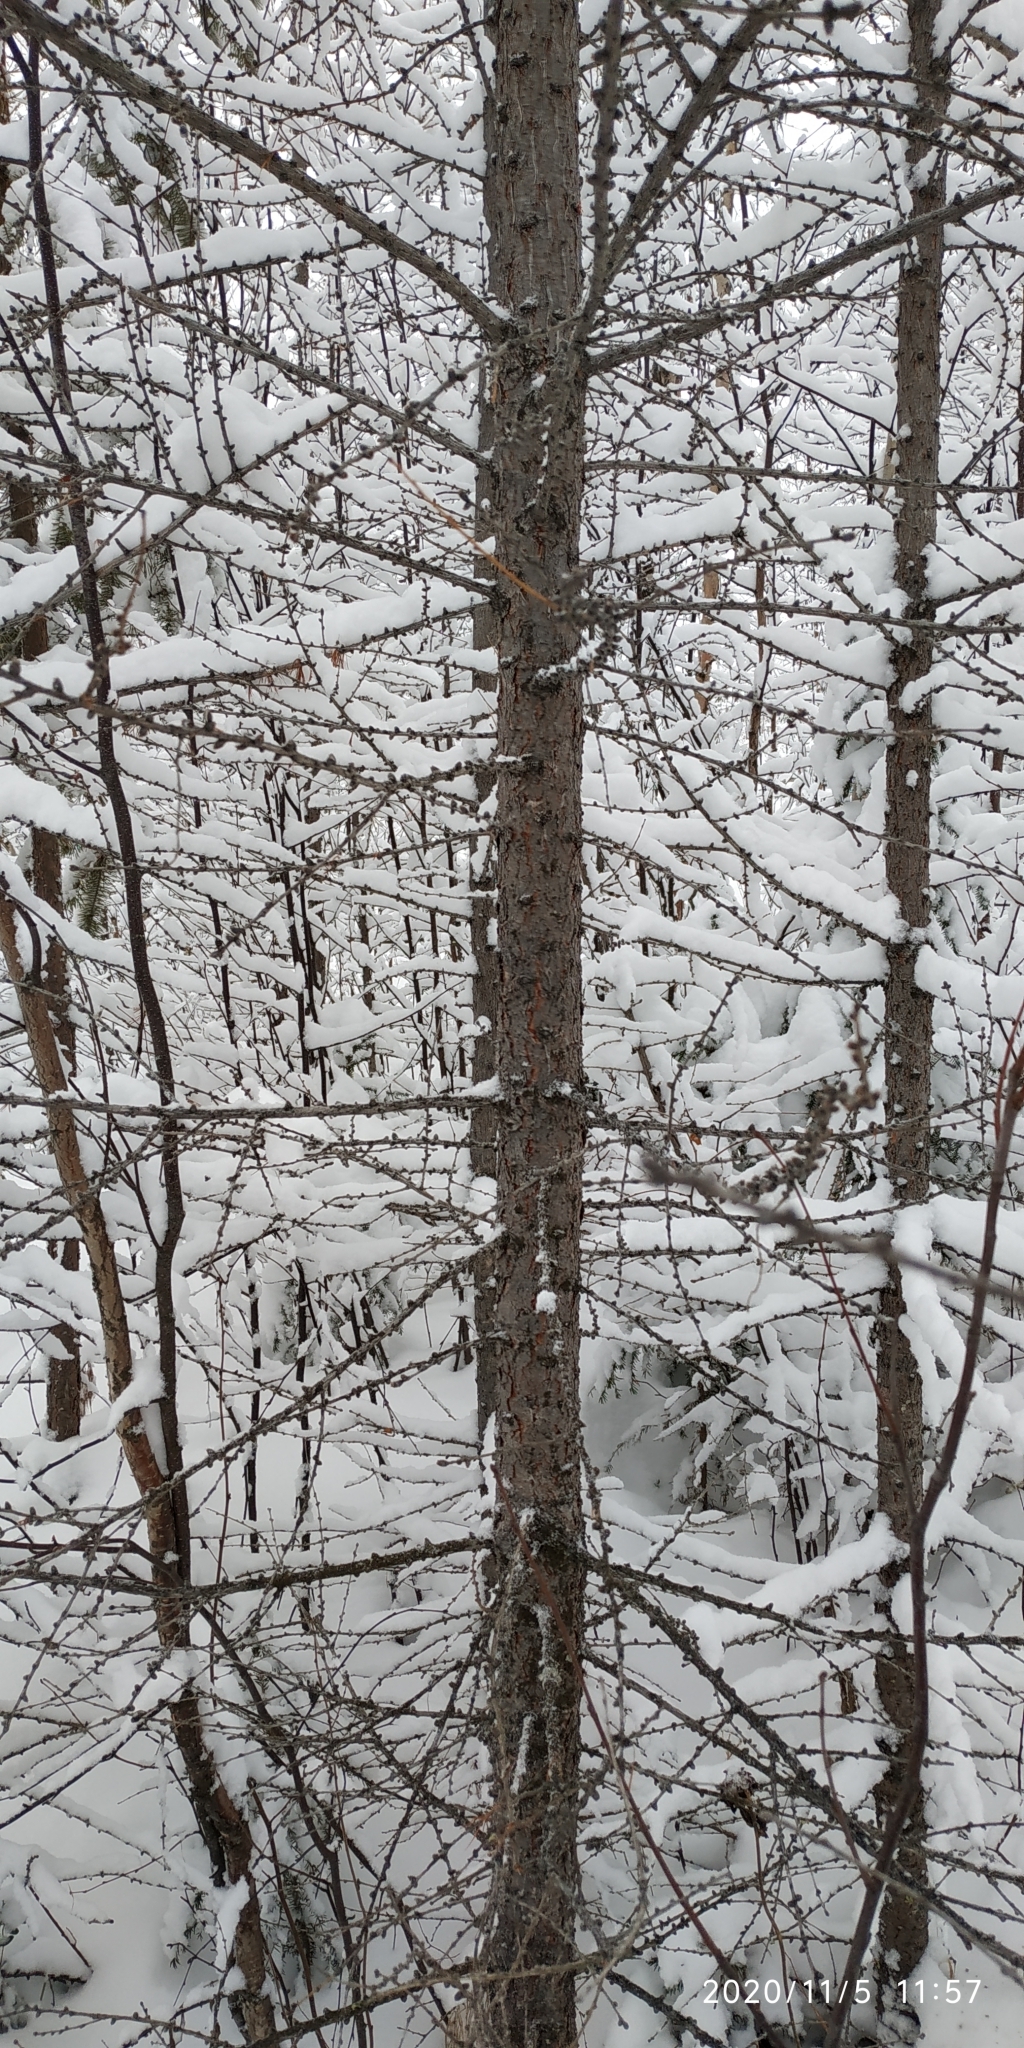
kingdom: Plantae
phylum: Tracheophyta
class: Pinopsida
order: Pinales
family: Pinaceae
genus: Larix
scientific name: Larix sibirica
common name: Siberian larch
